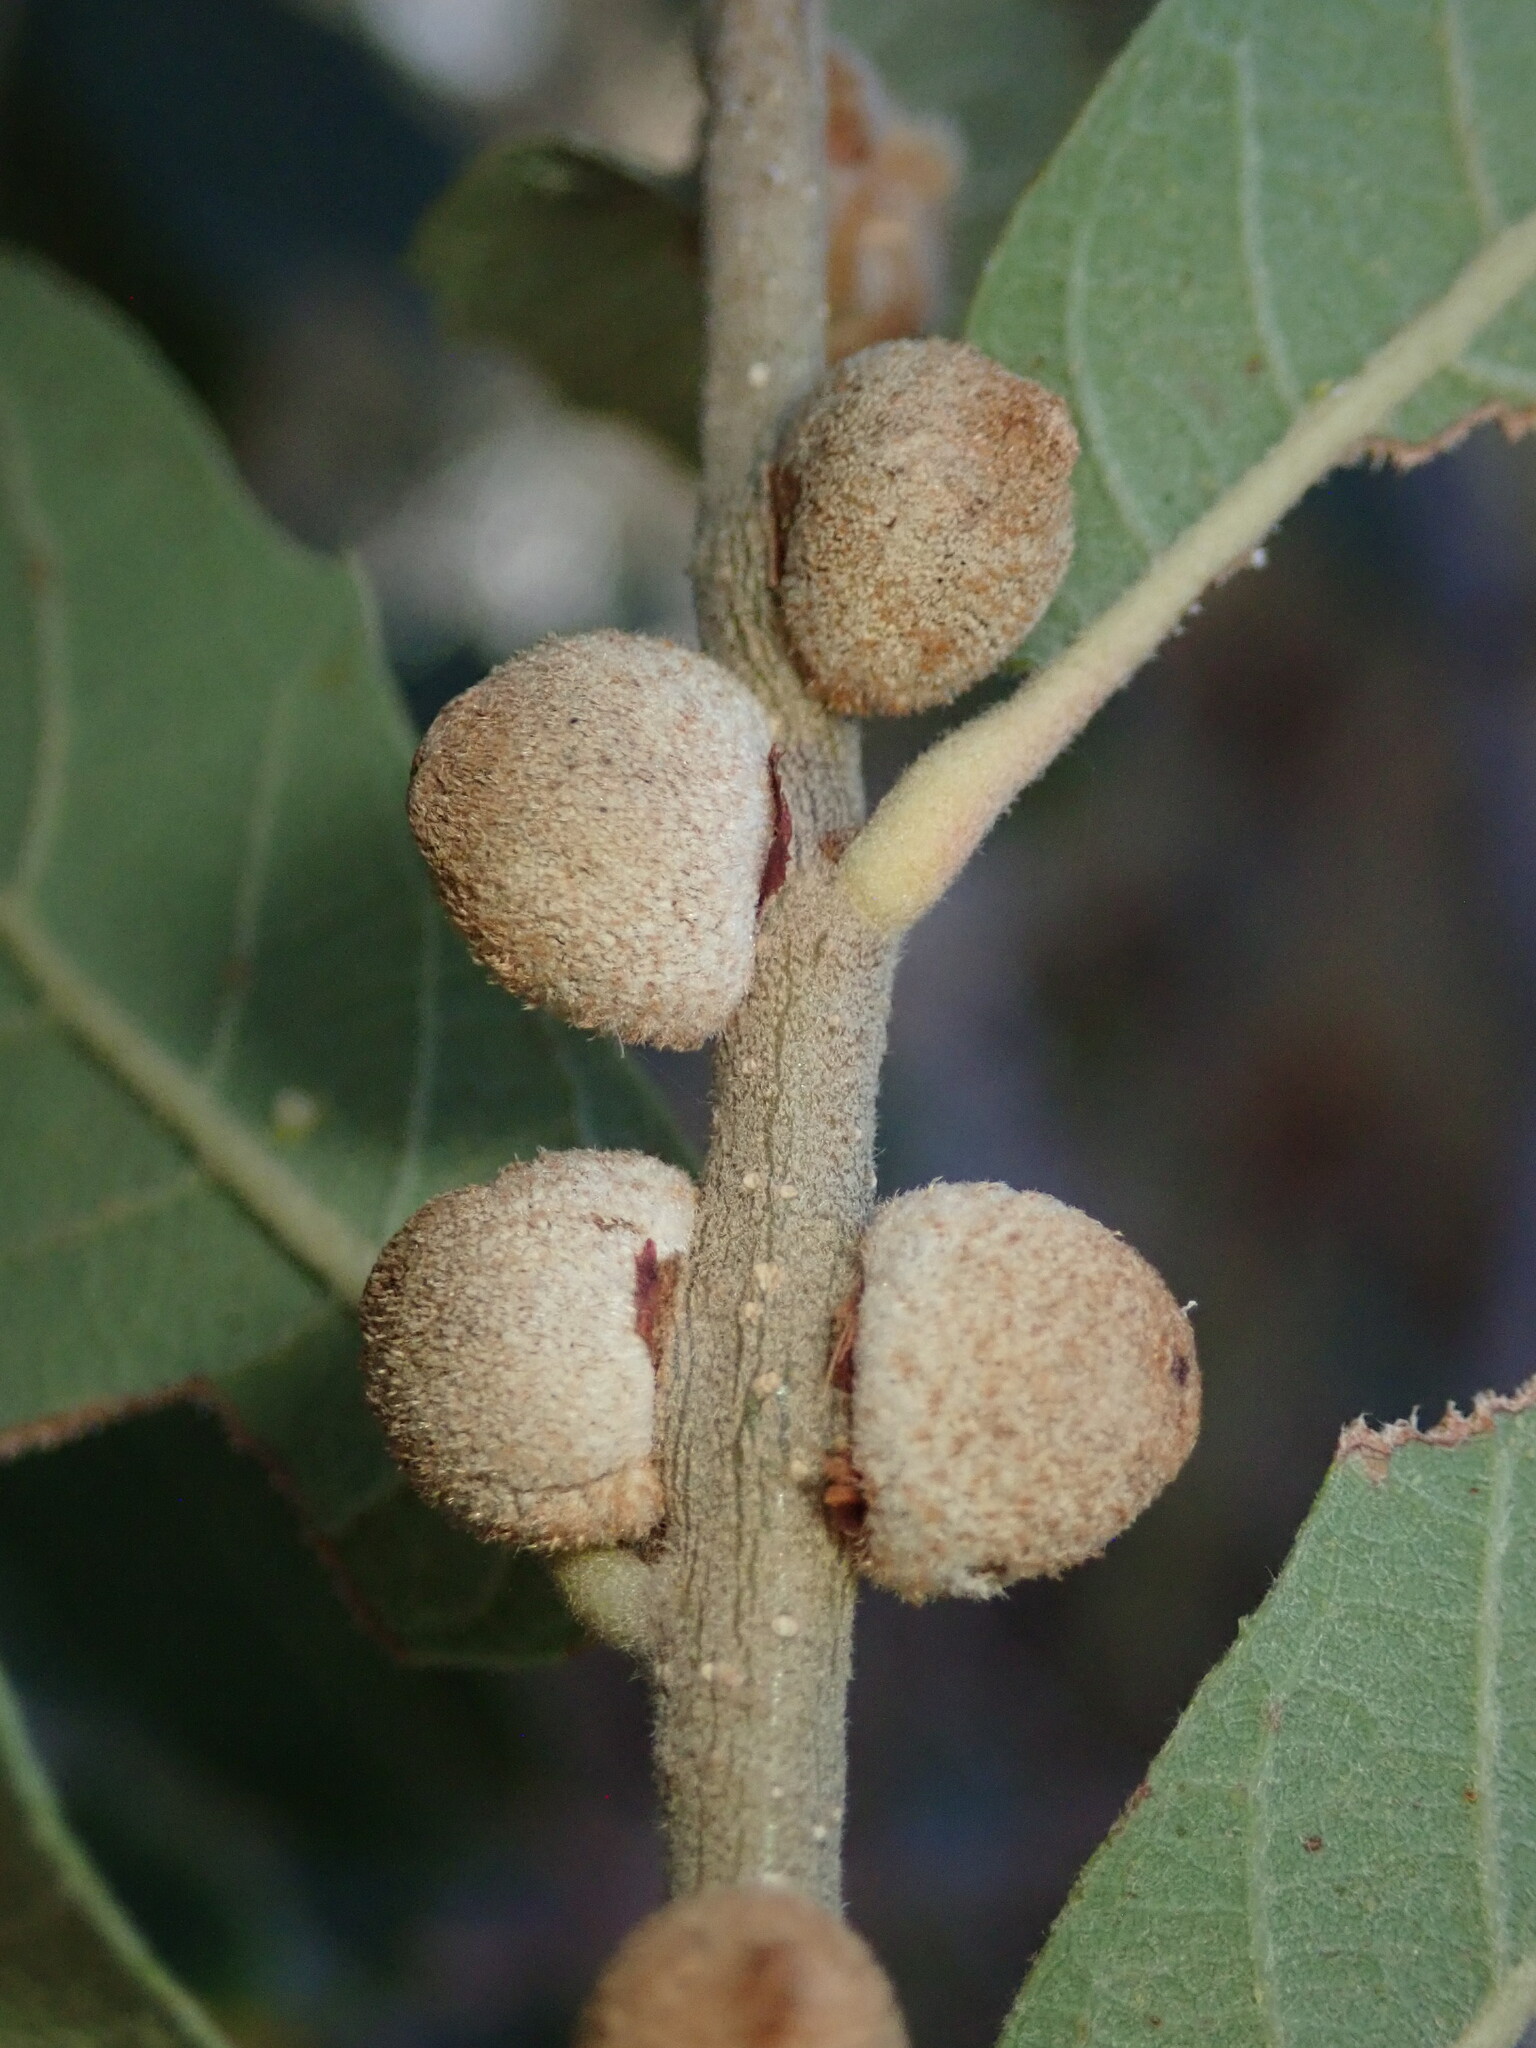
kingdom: Animalia
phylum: Arthropoda
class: Insecta
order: Hymenoptera
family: Cynipidae
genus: Disholcaspis
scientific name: Disholcaspis
